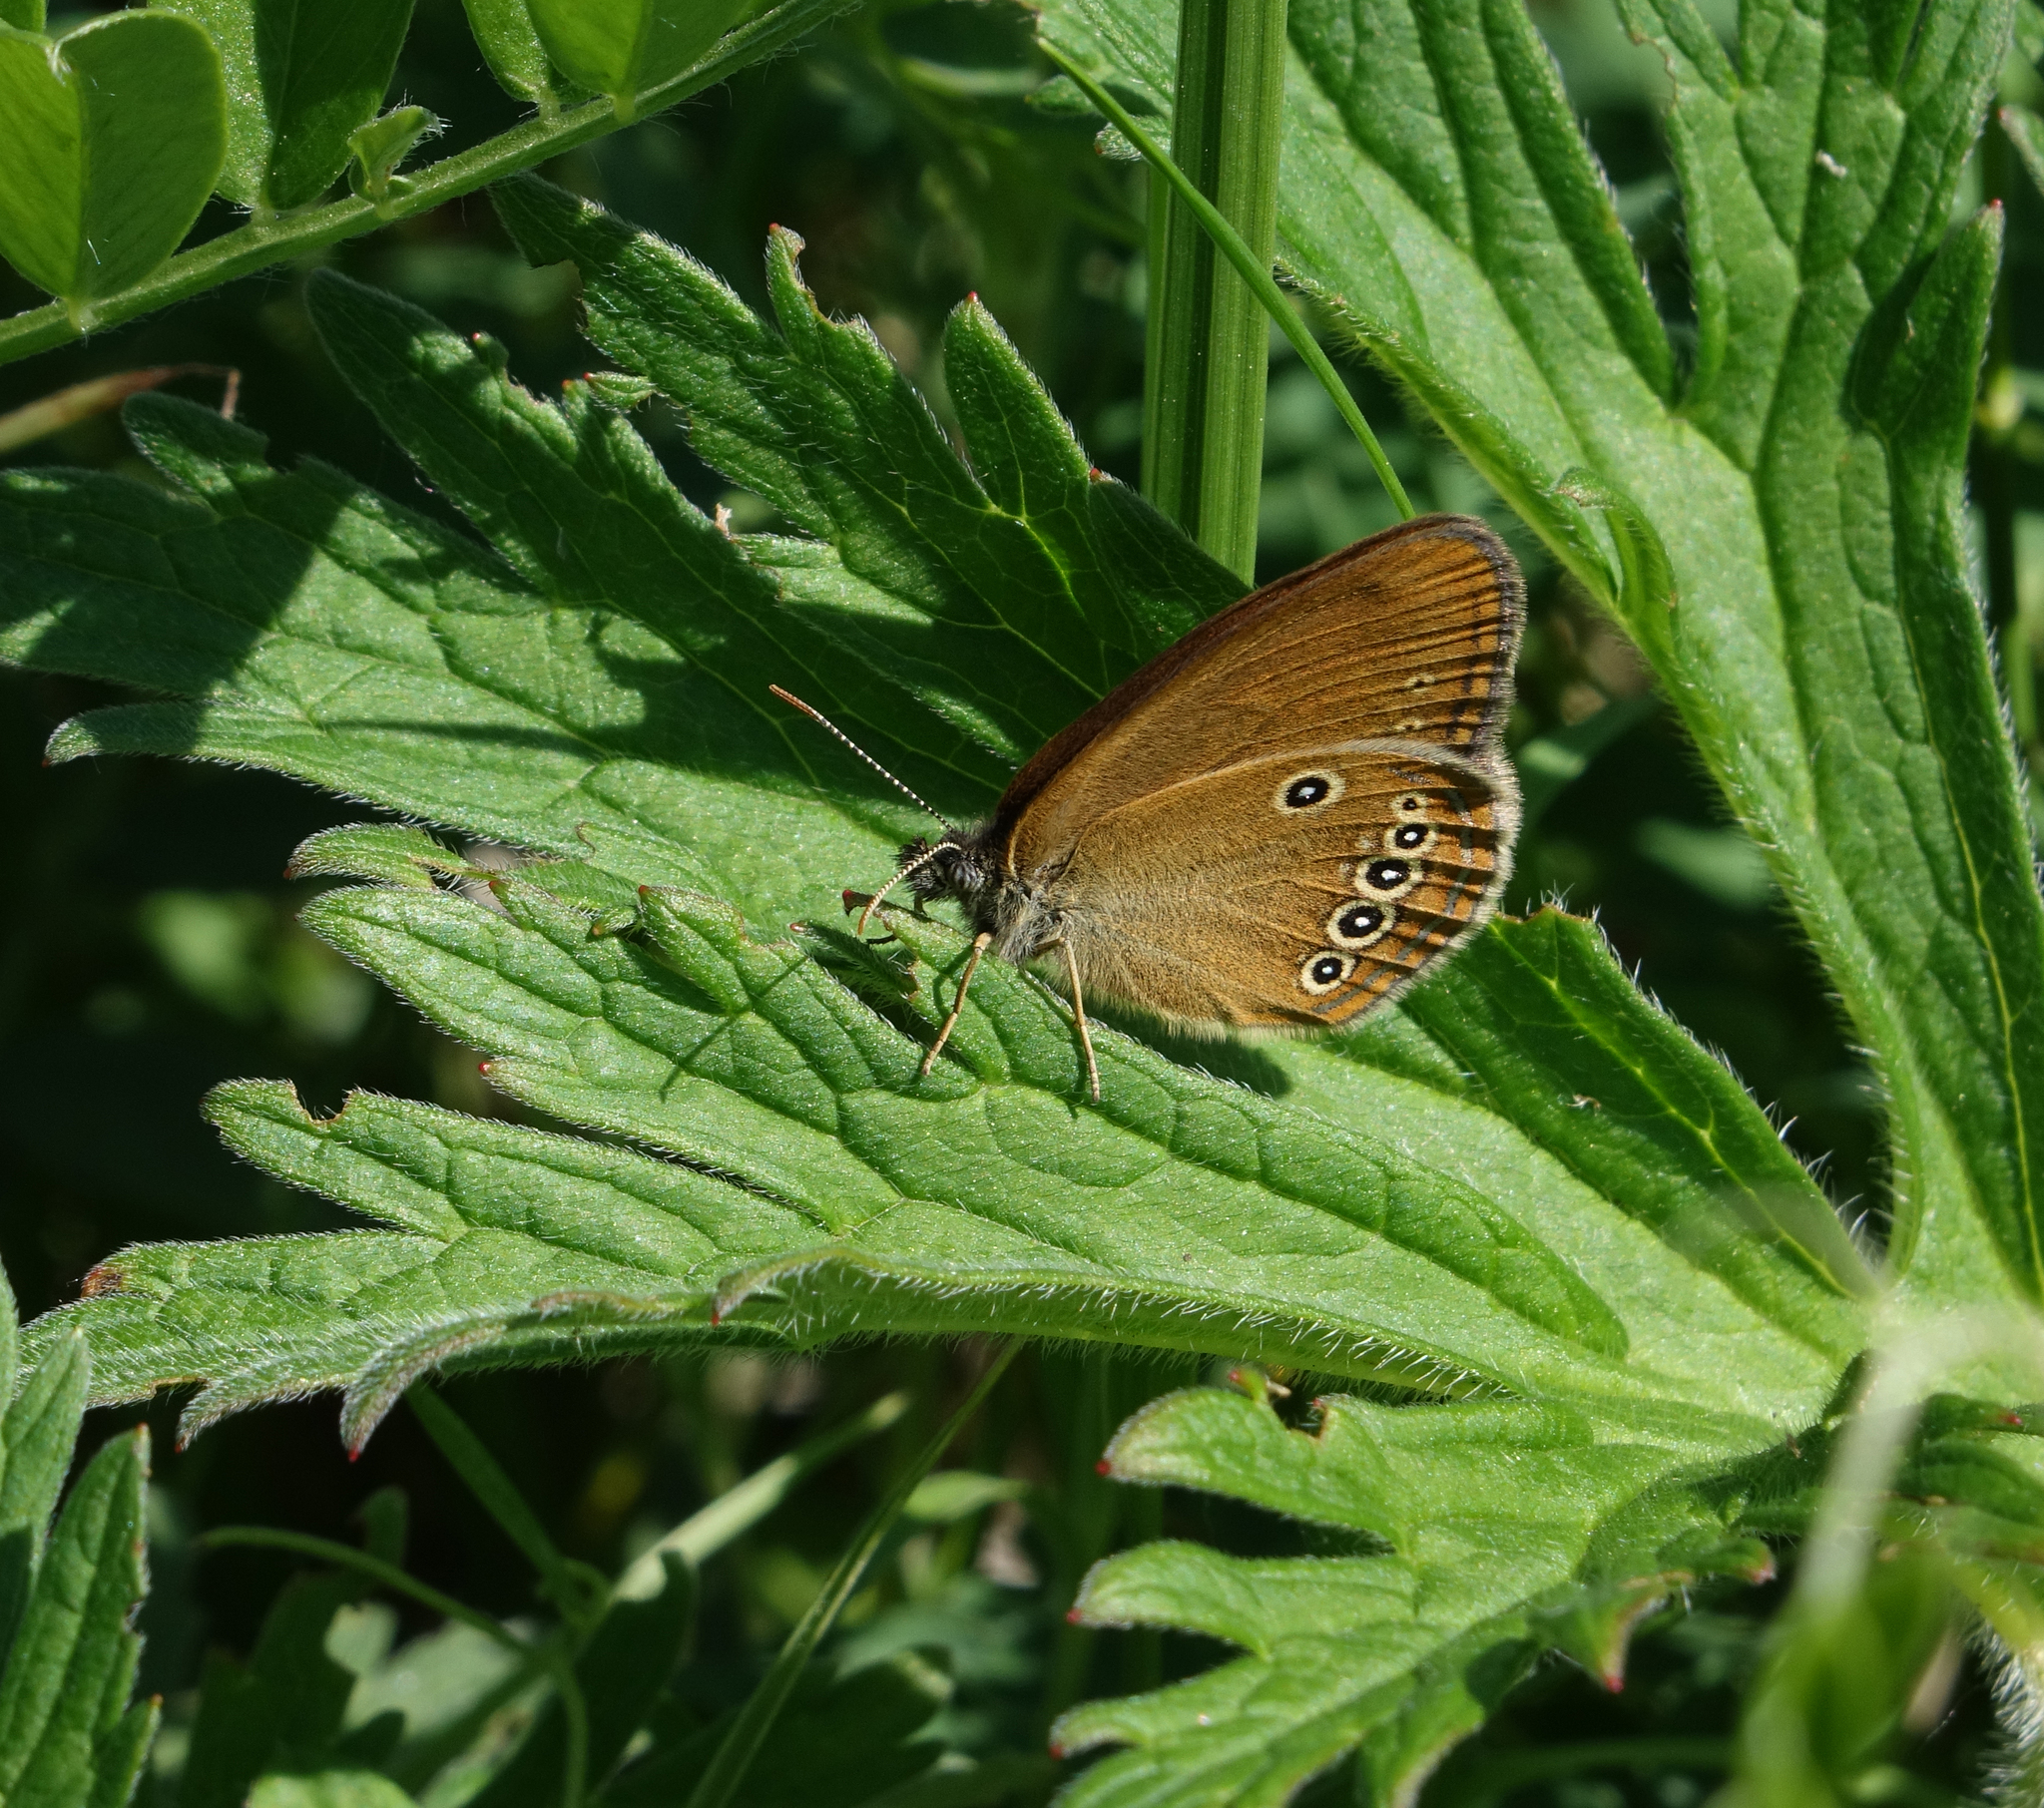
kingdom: Animalia
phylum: Arthropoda
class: Insecta
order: Lepidoptera
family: Nymphalidae
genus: Coenonympha
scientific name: Coenonympha oedippus
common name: False ringlet
